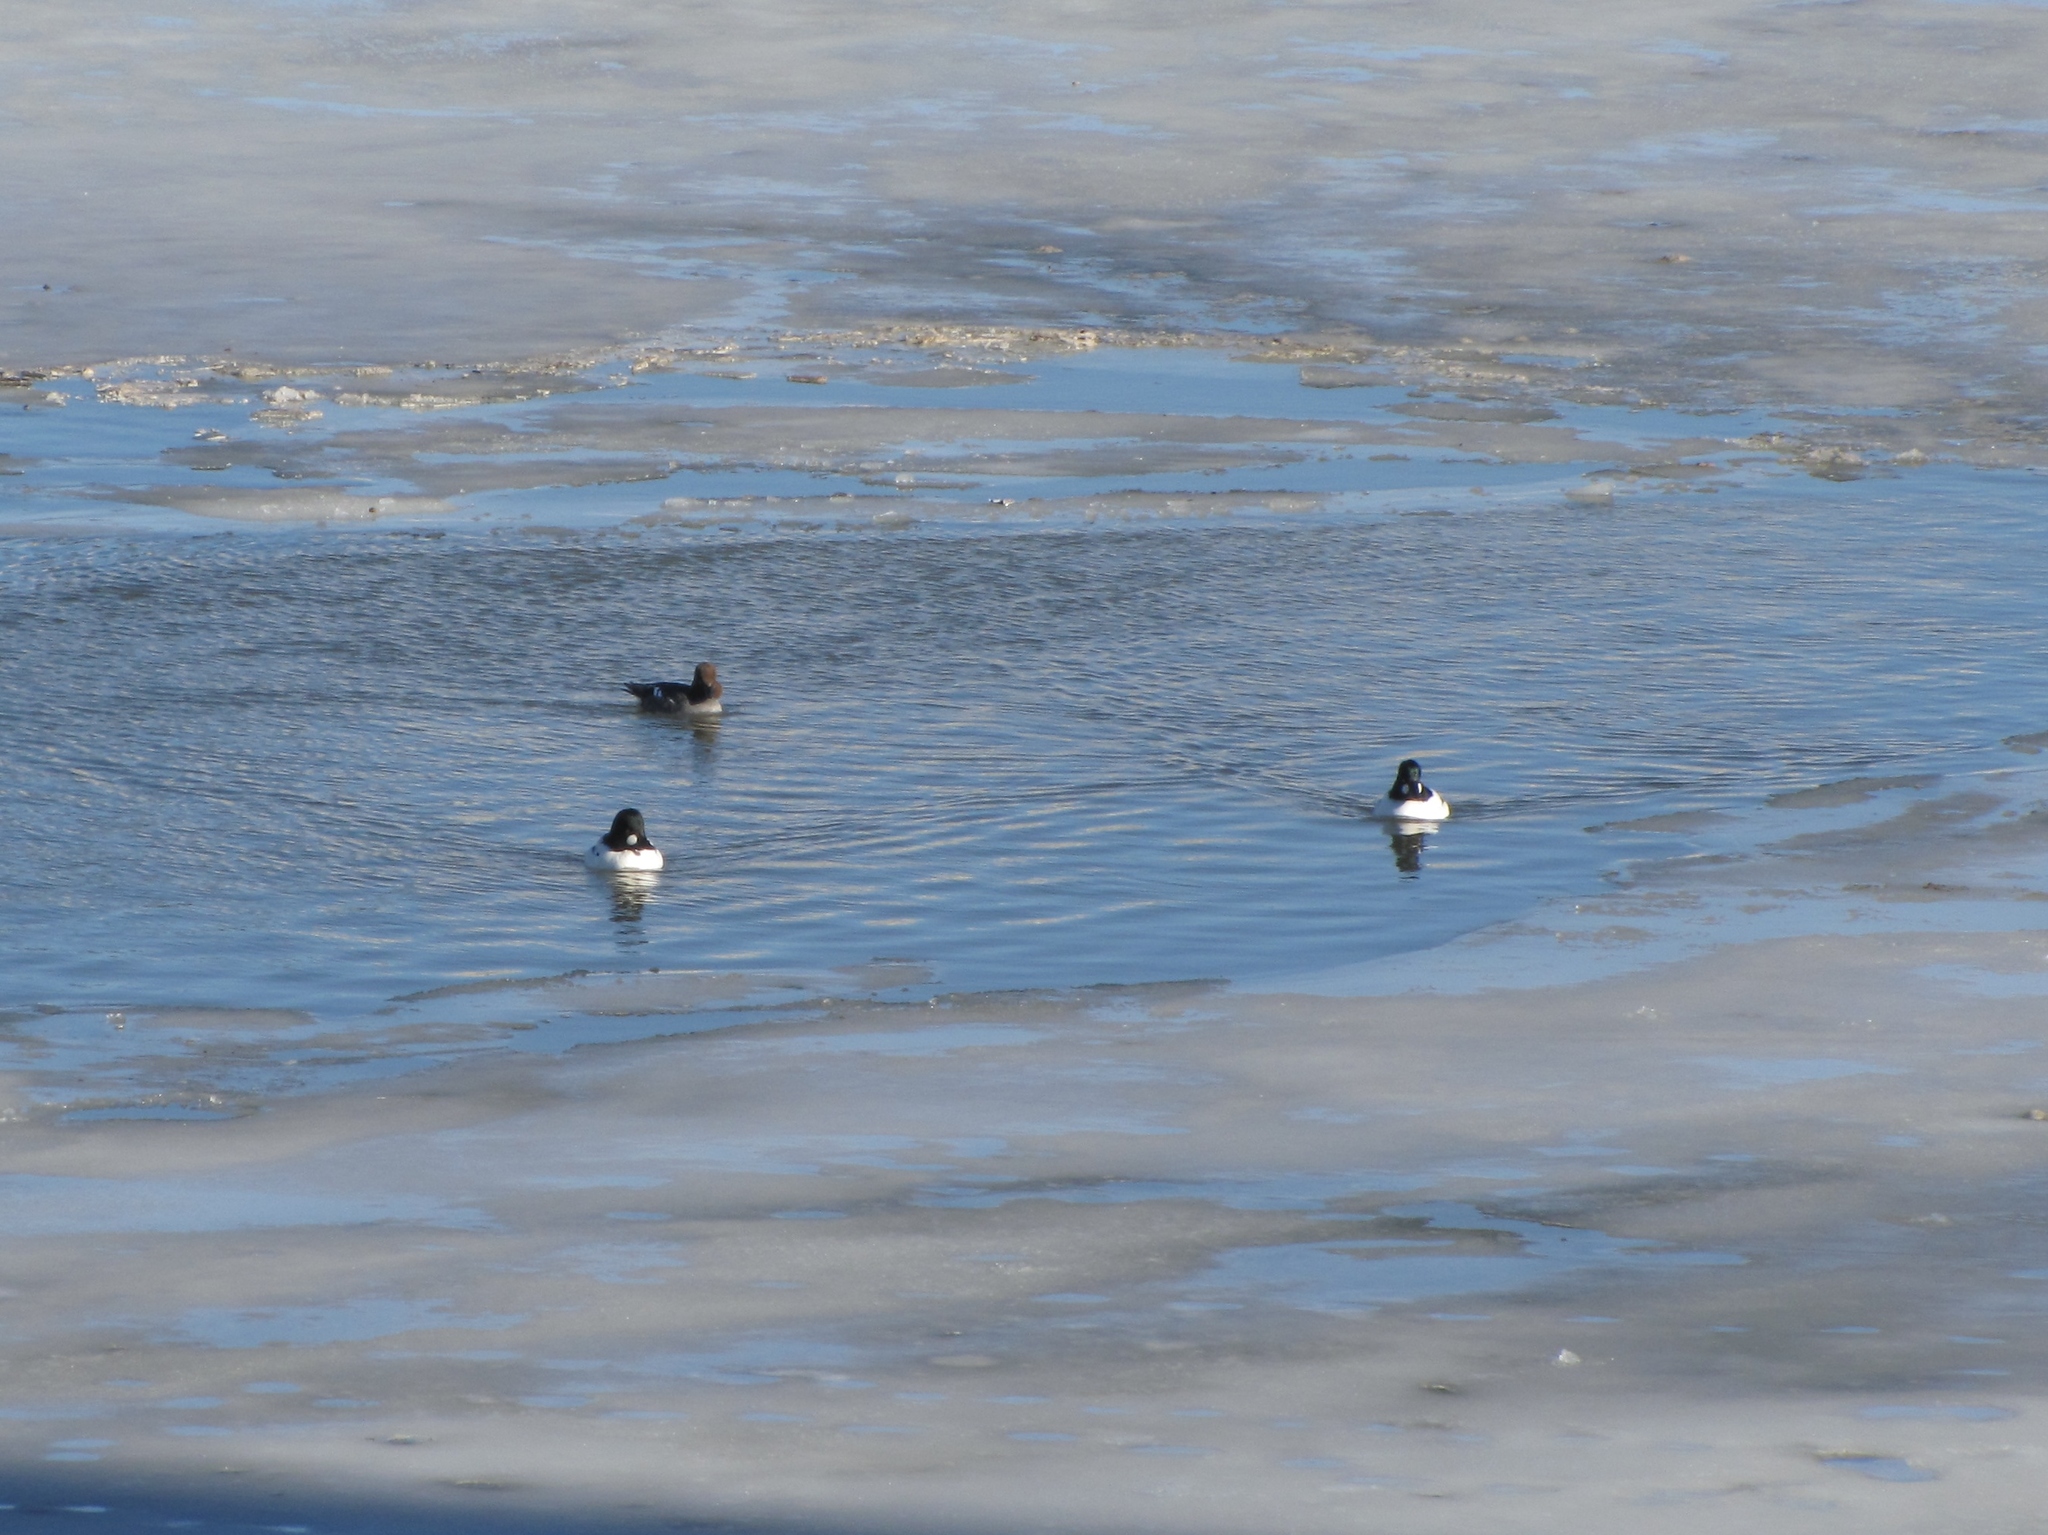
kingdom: Animalia
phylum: Chordata
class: Aves
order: Anseriformes
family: Anatidae
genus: Bucephala
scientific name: Bucephala clangula
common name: Common goldeneye
